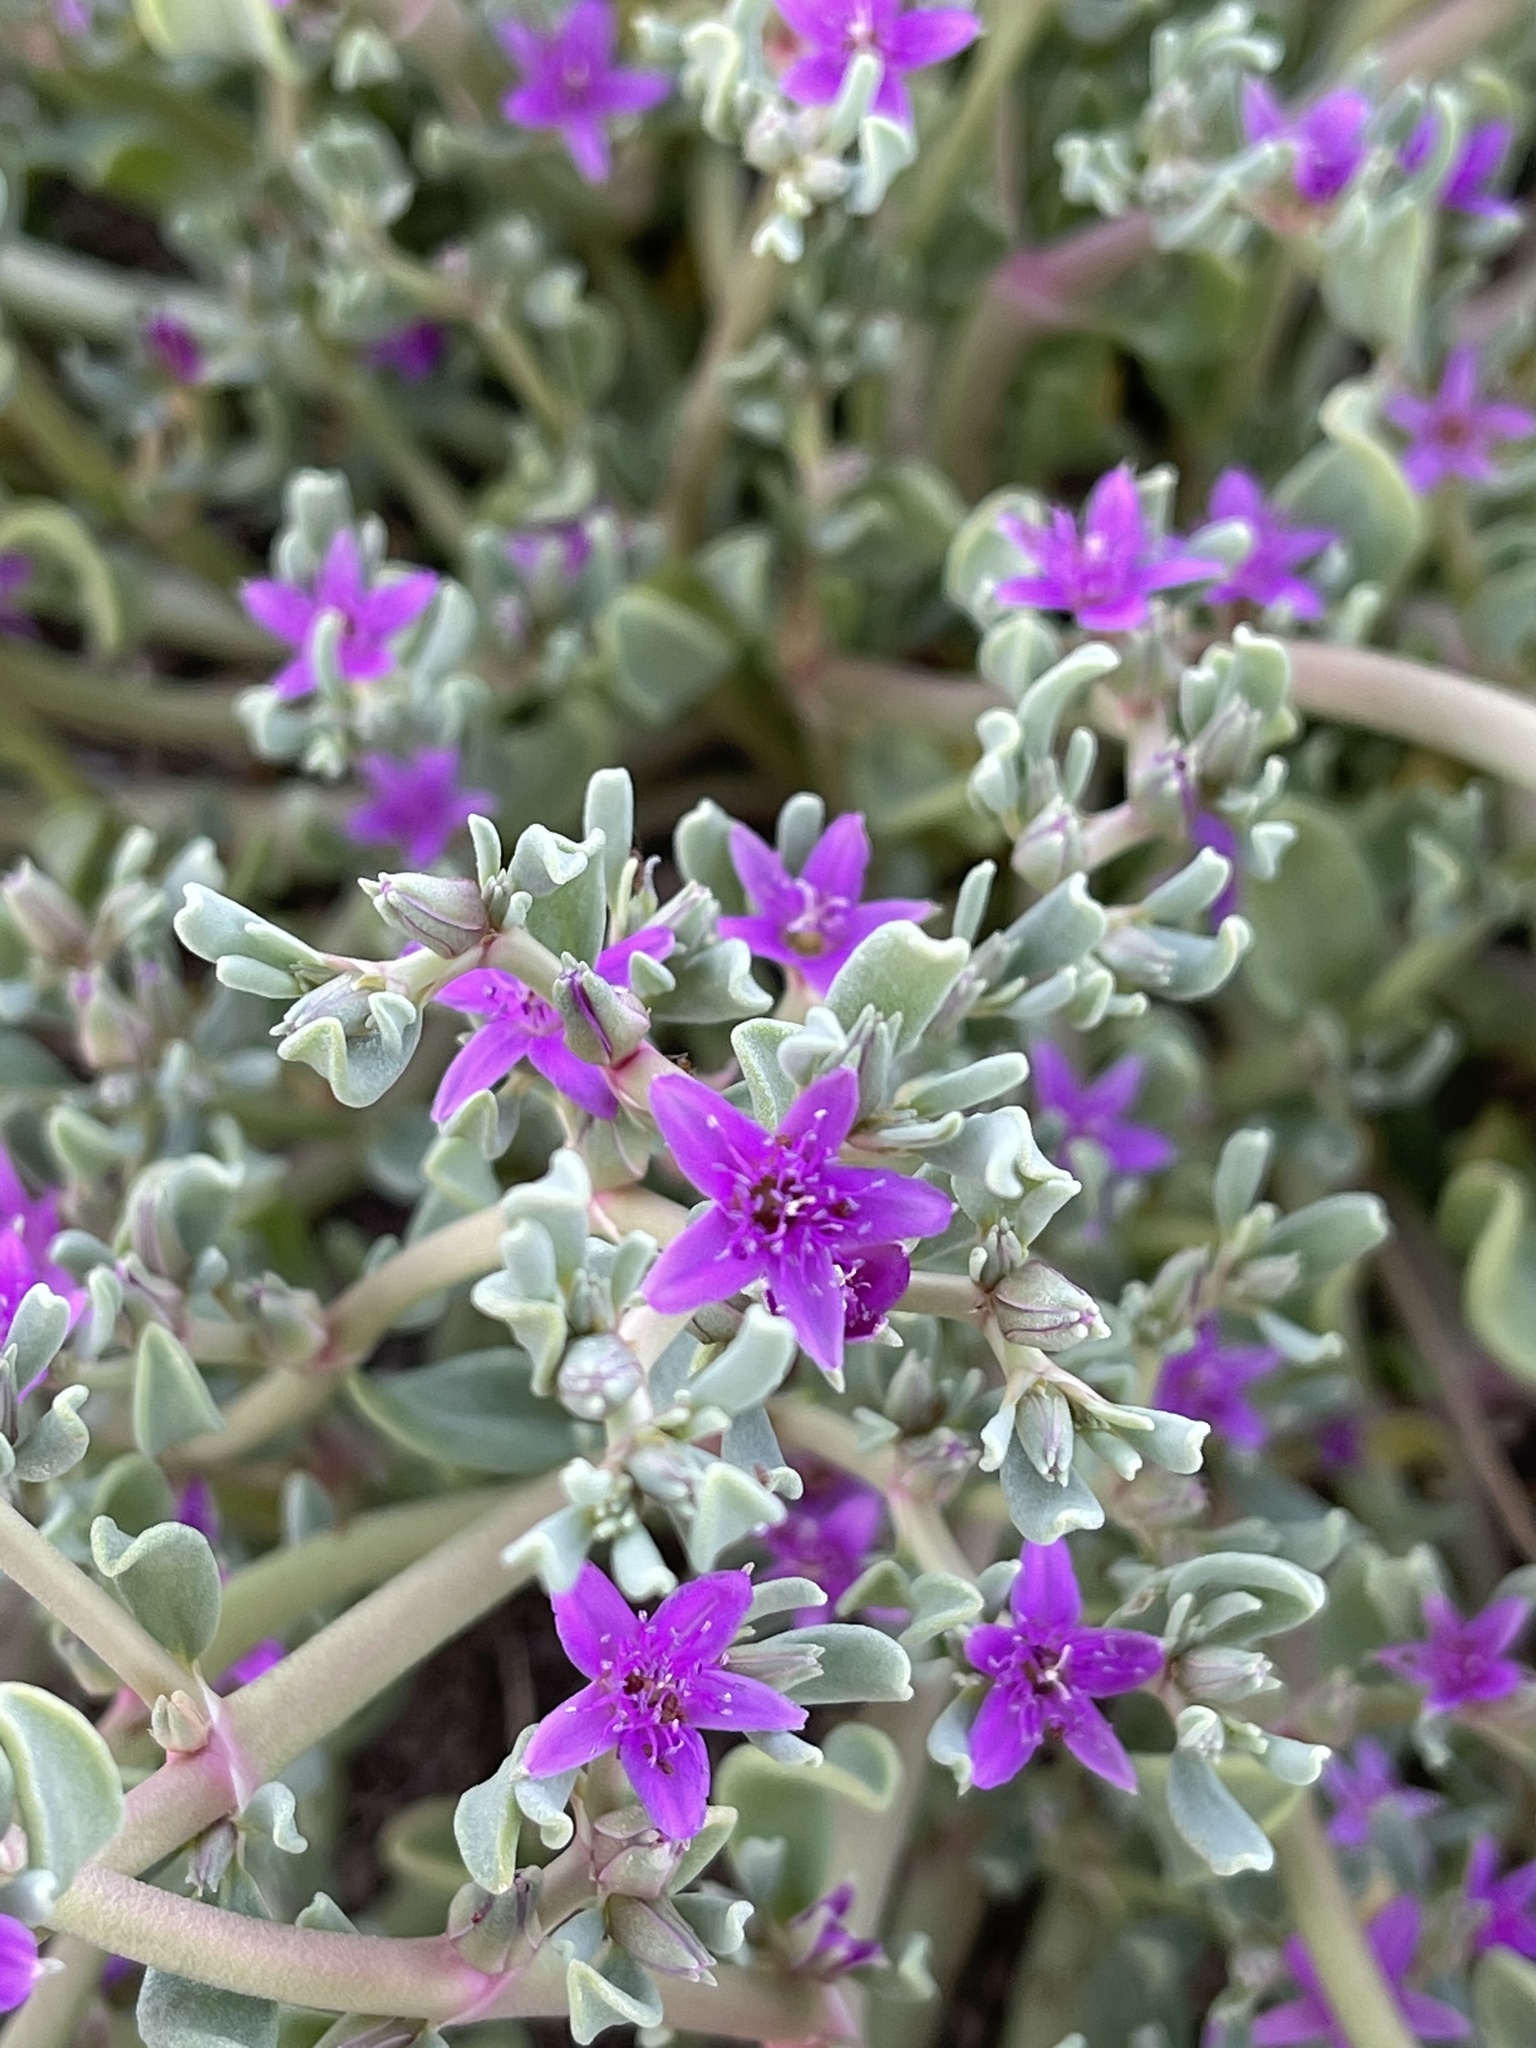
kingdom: Plantae
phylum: Tracheophyta
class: Magnoliopsida
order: Caryophyllales
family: Aizoaceae
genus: Sesuvium
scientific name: Sesuvium revolutifolium
